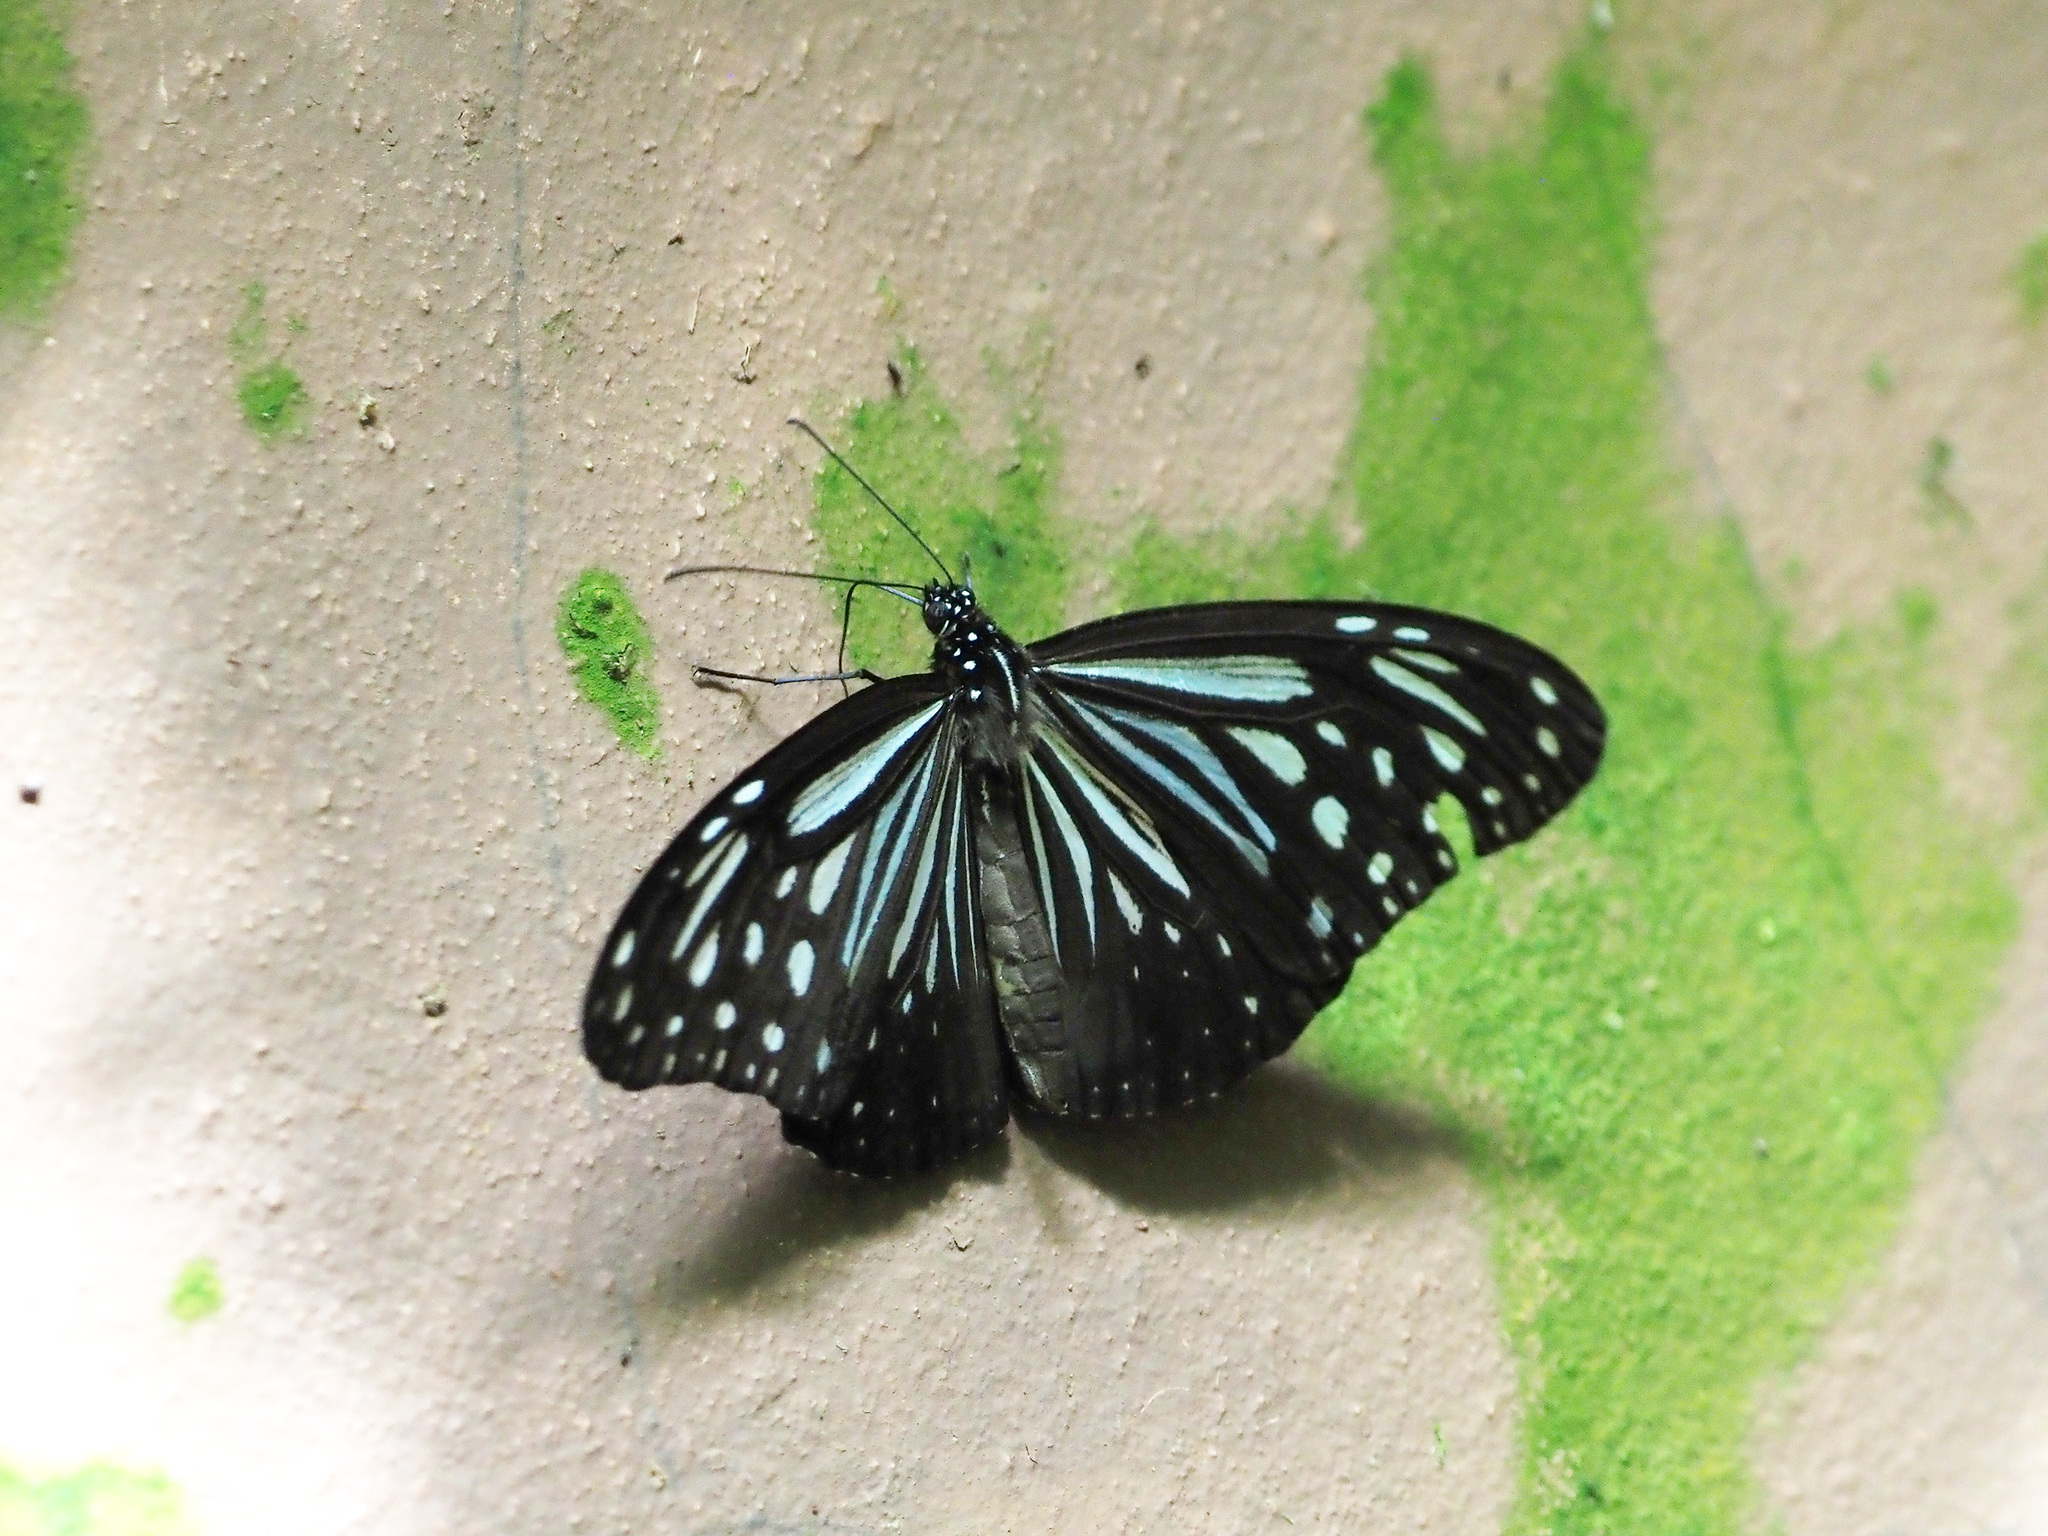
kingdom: Animalia
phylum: Arthropoda
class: Insecta
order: Lepidoptera
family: Nymphalidae
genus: Parantica
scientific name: Parantica luzonensis
